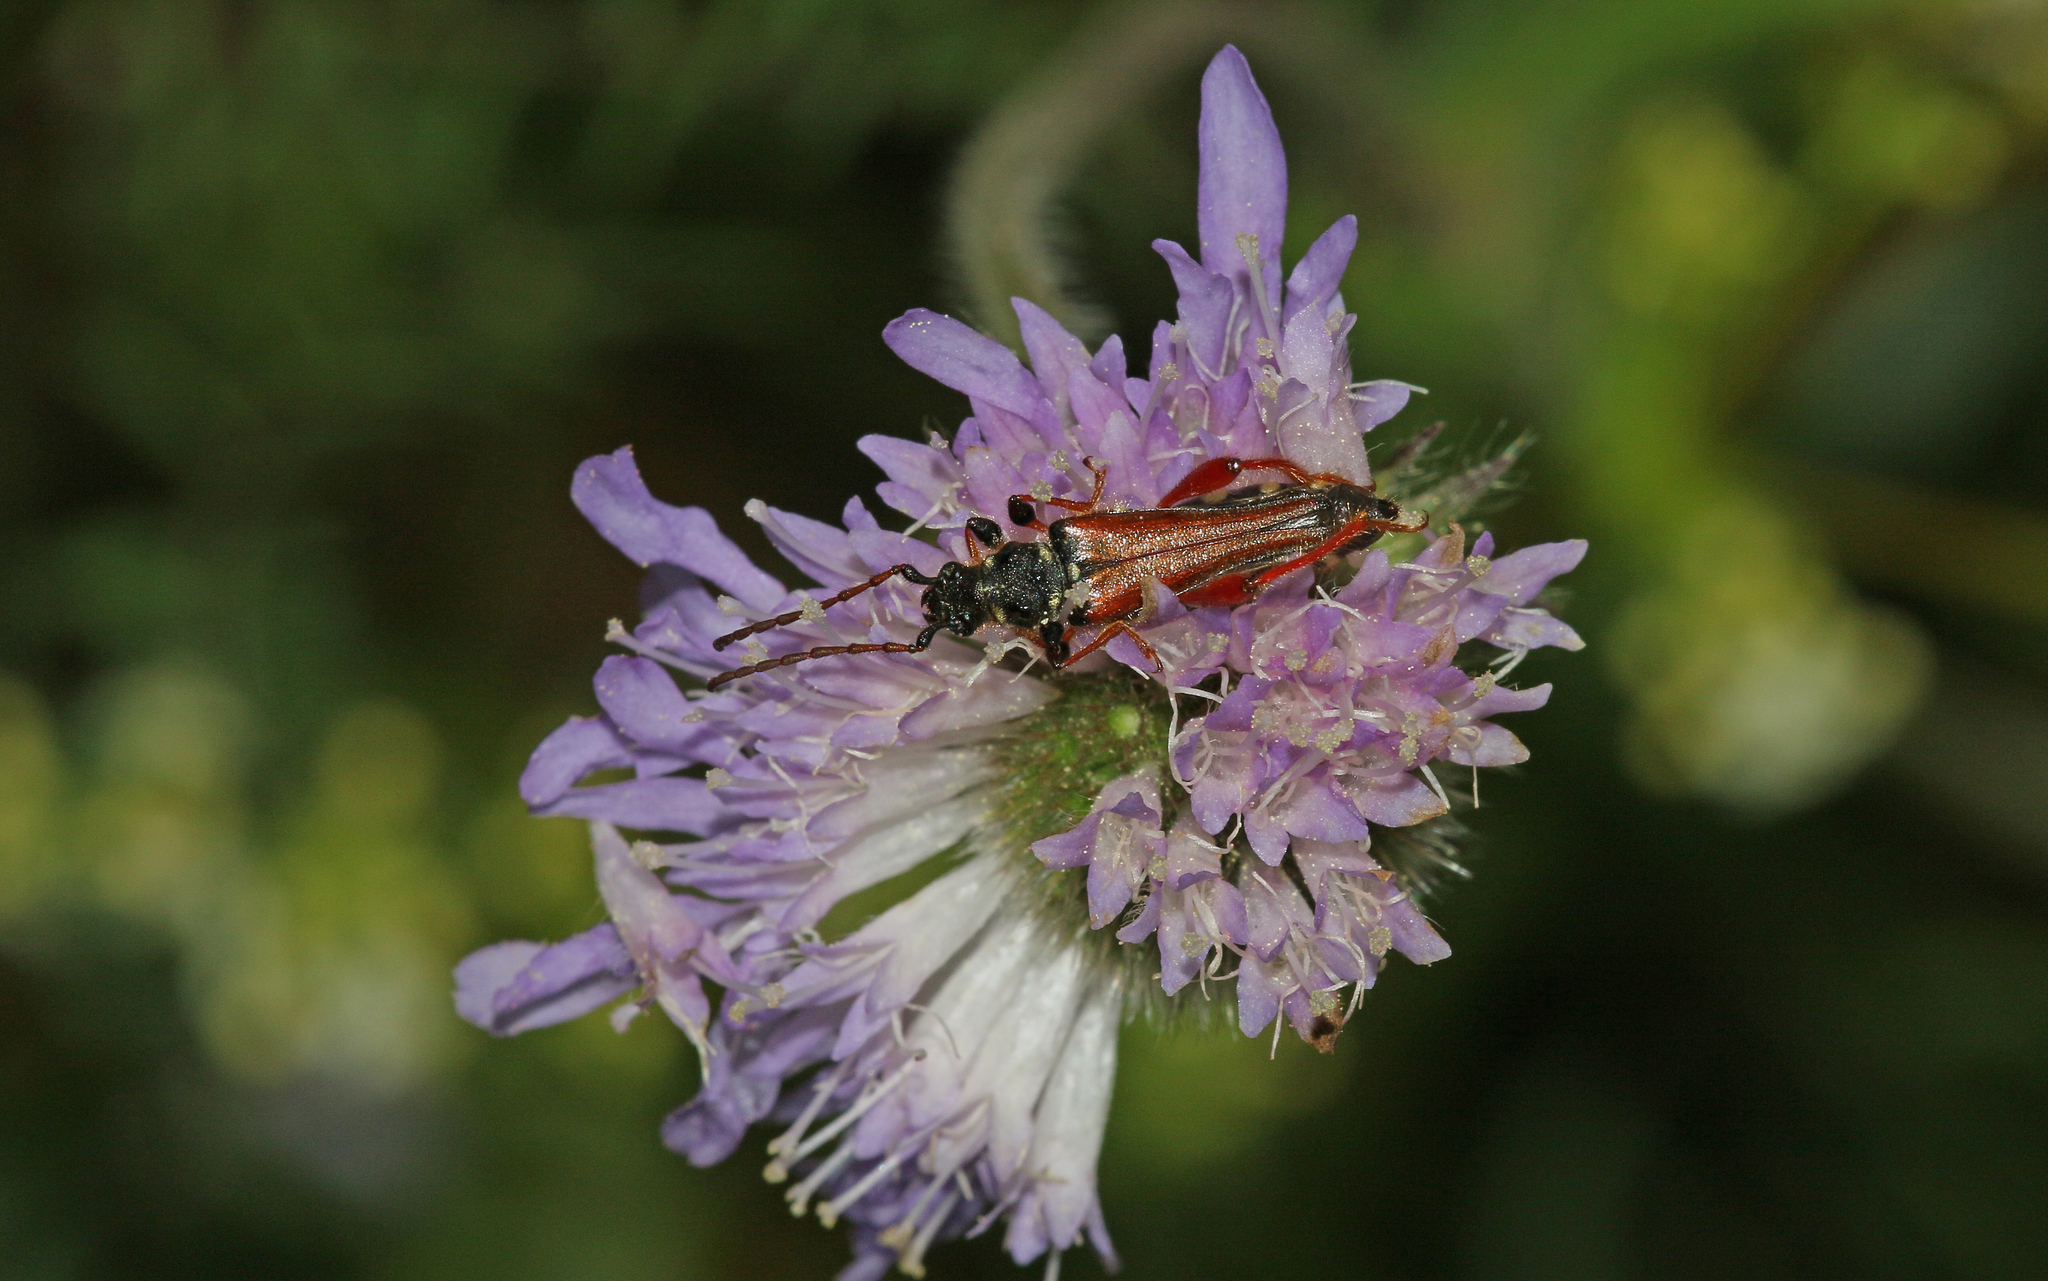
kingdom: Animalia
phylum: Arthropoda
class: Insecta
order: Coleoptera
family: Cerambycidae
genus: Stenopterus
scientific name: Stenopterus rufus
